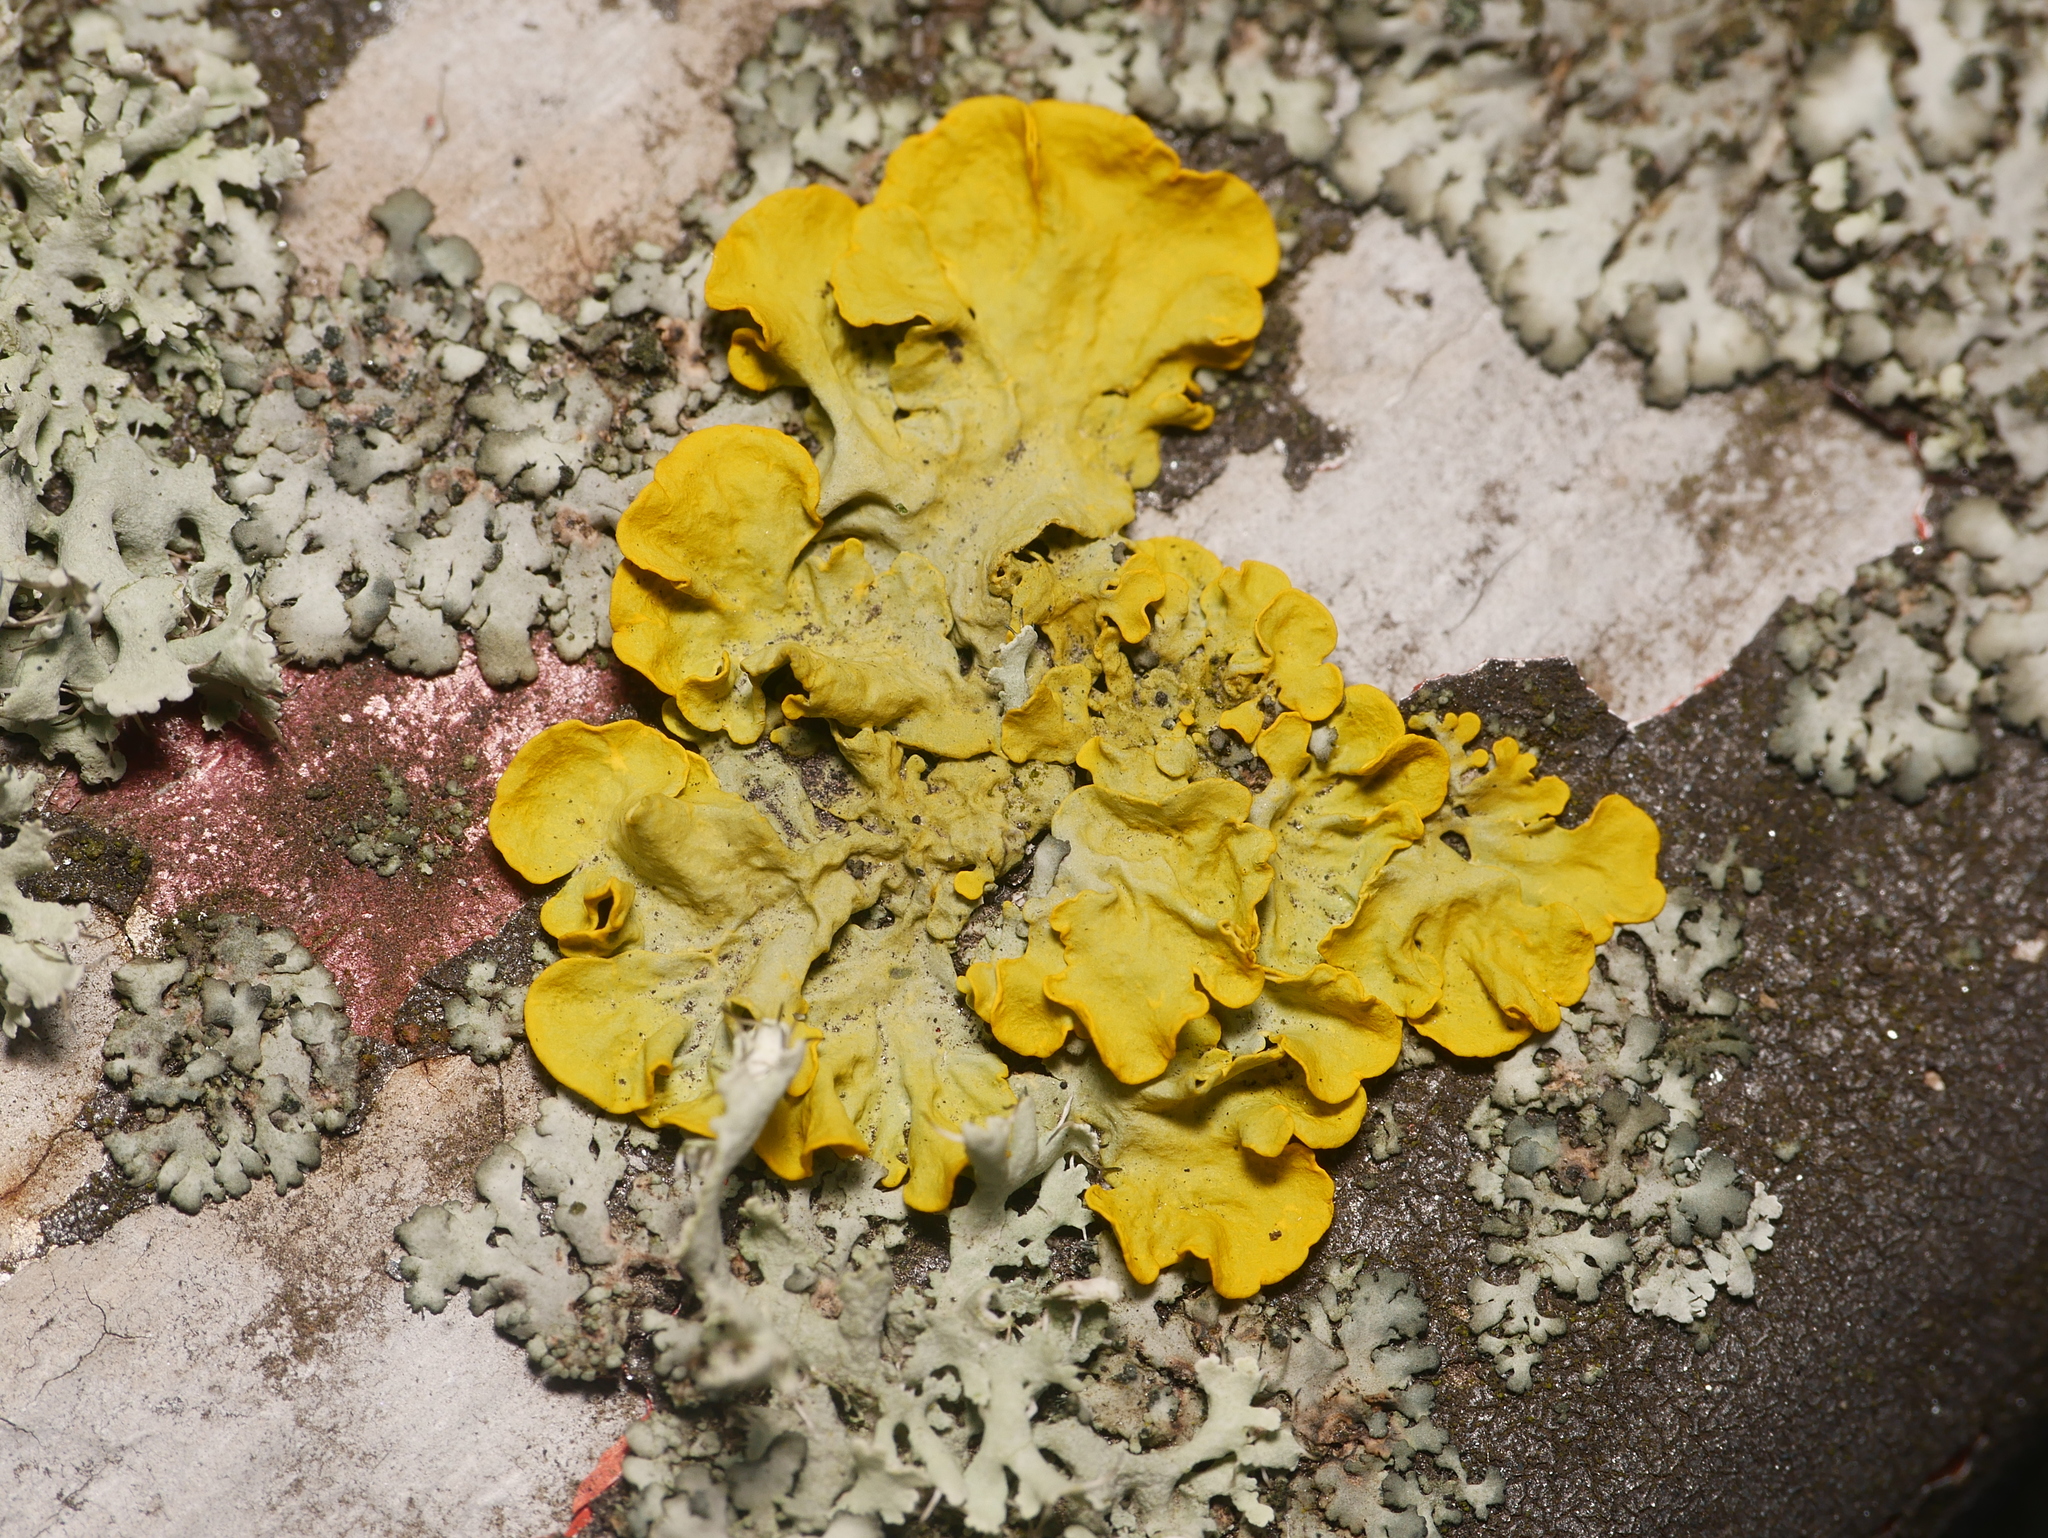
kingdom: Fungi
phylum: Ascomycota
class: Lecanoromycetes
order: Teloschistales
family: Teloschistaceae
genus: Xanthoria
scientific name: Xanthoria parietina
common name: Common orange lichen
